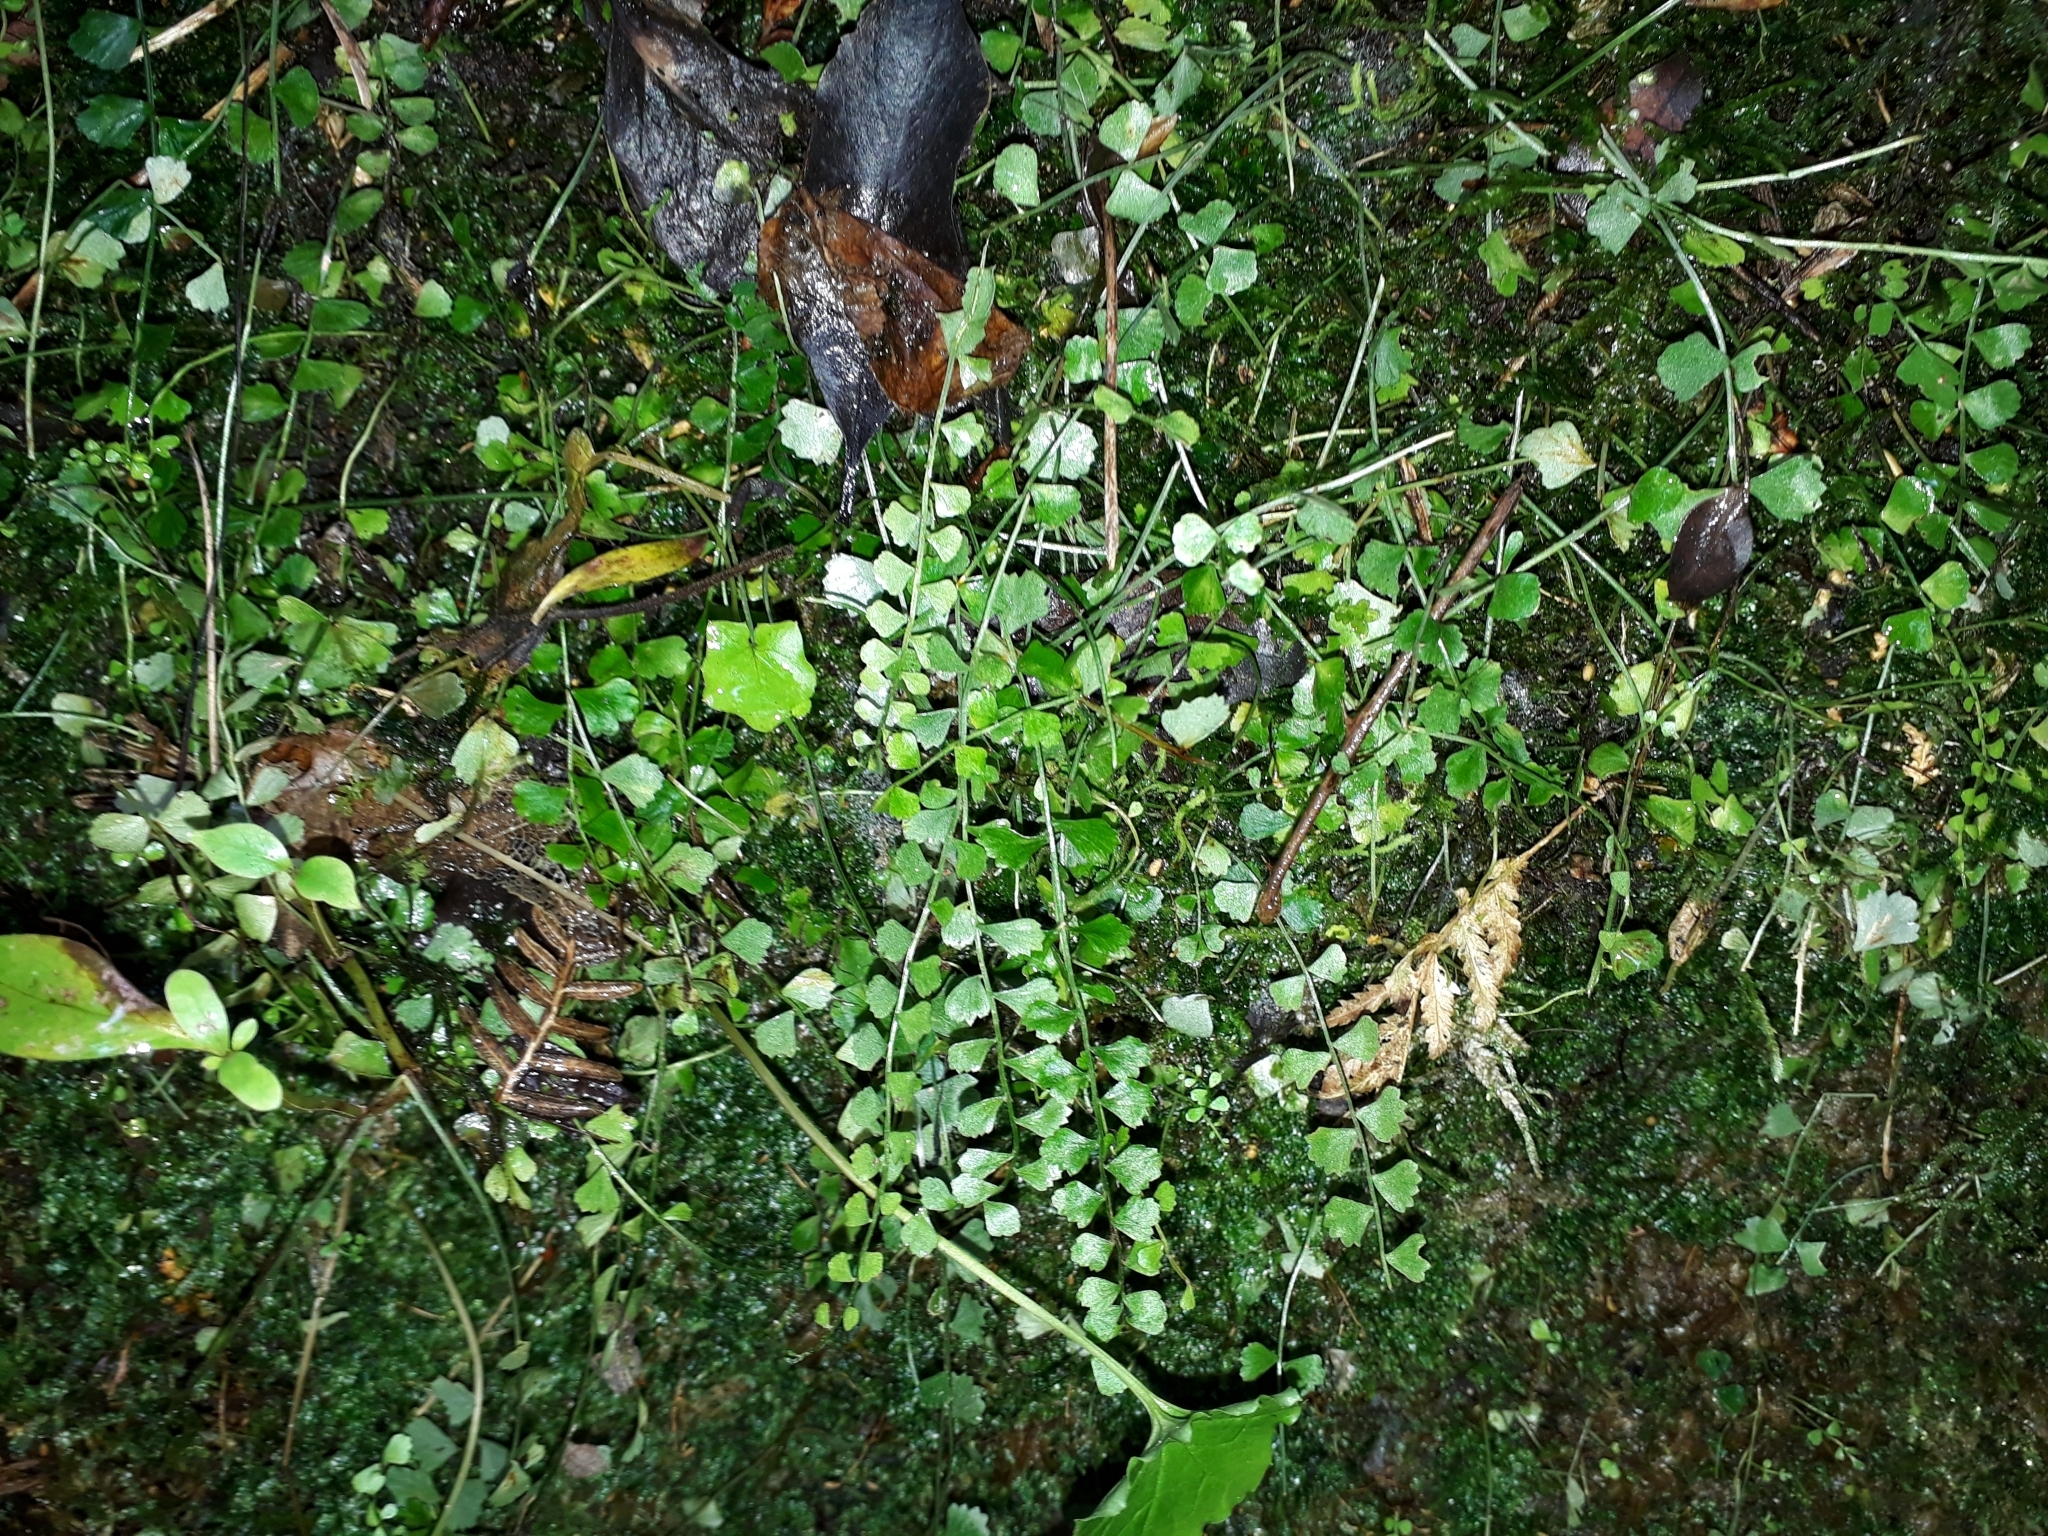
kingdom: Plantae
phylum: Tracheophyta
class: Polypodiopsida
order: Polypodiales
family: Aspleniaceae
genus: Asplenium
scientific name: Asplenium flabellifolium
